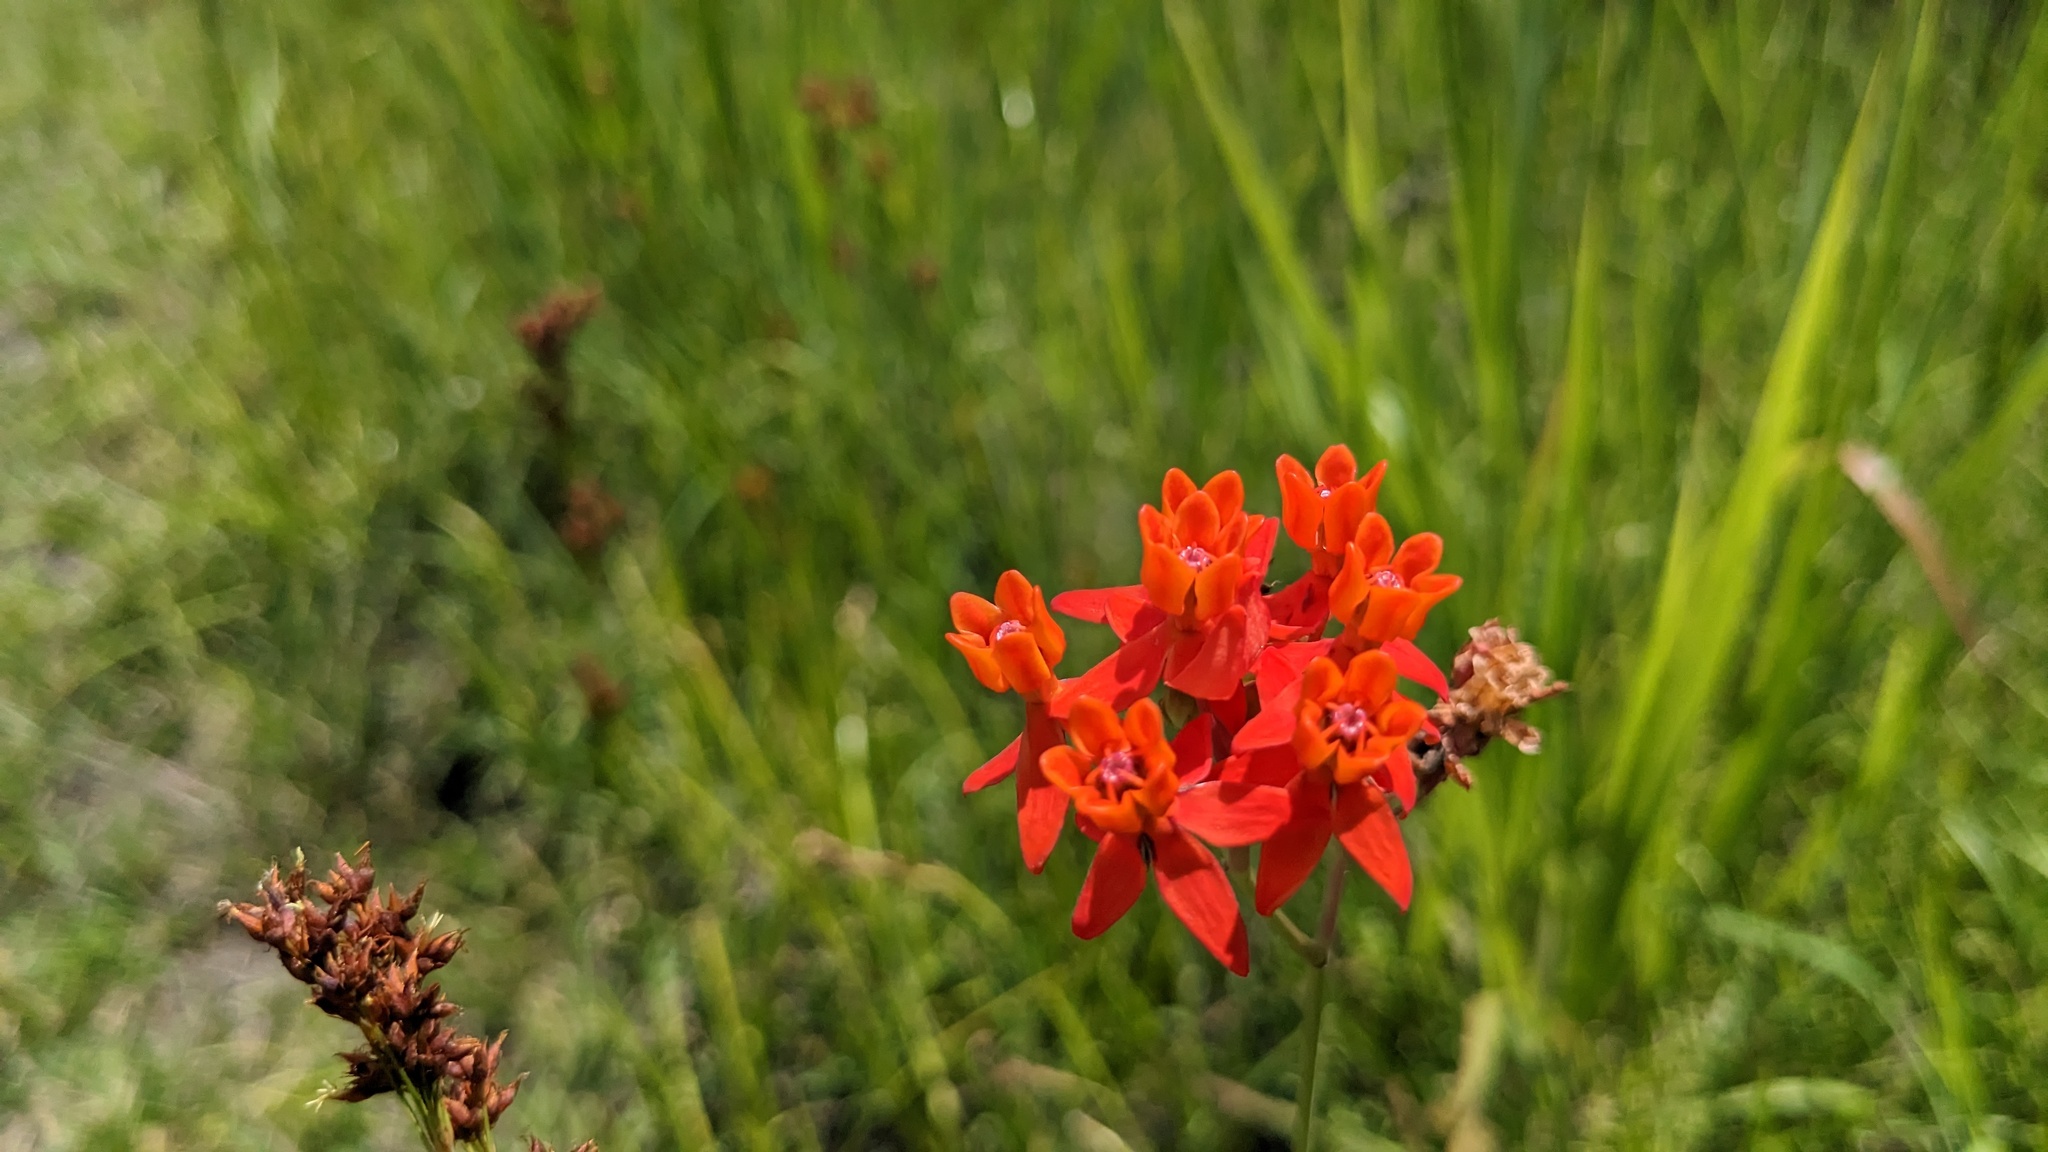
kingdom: Plantae
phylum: Tracheophyta
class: Magnoliopsida
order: Gentianales
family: Apocynaceae
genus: Asclepias
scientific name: Asclepias lanceolata
